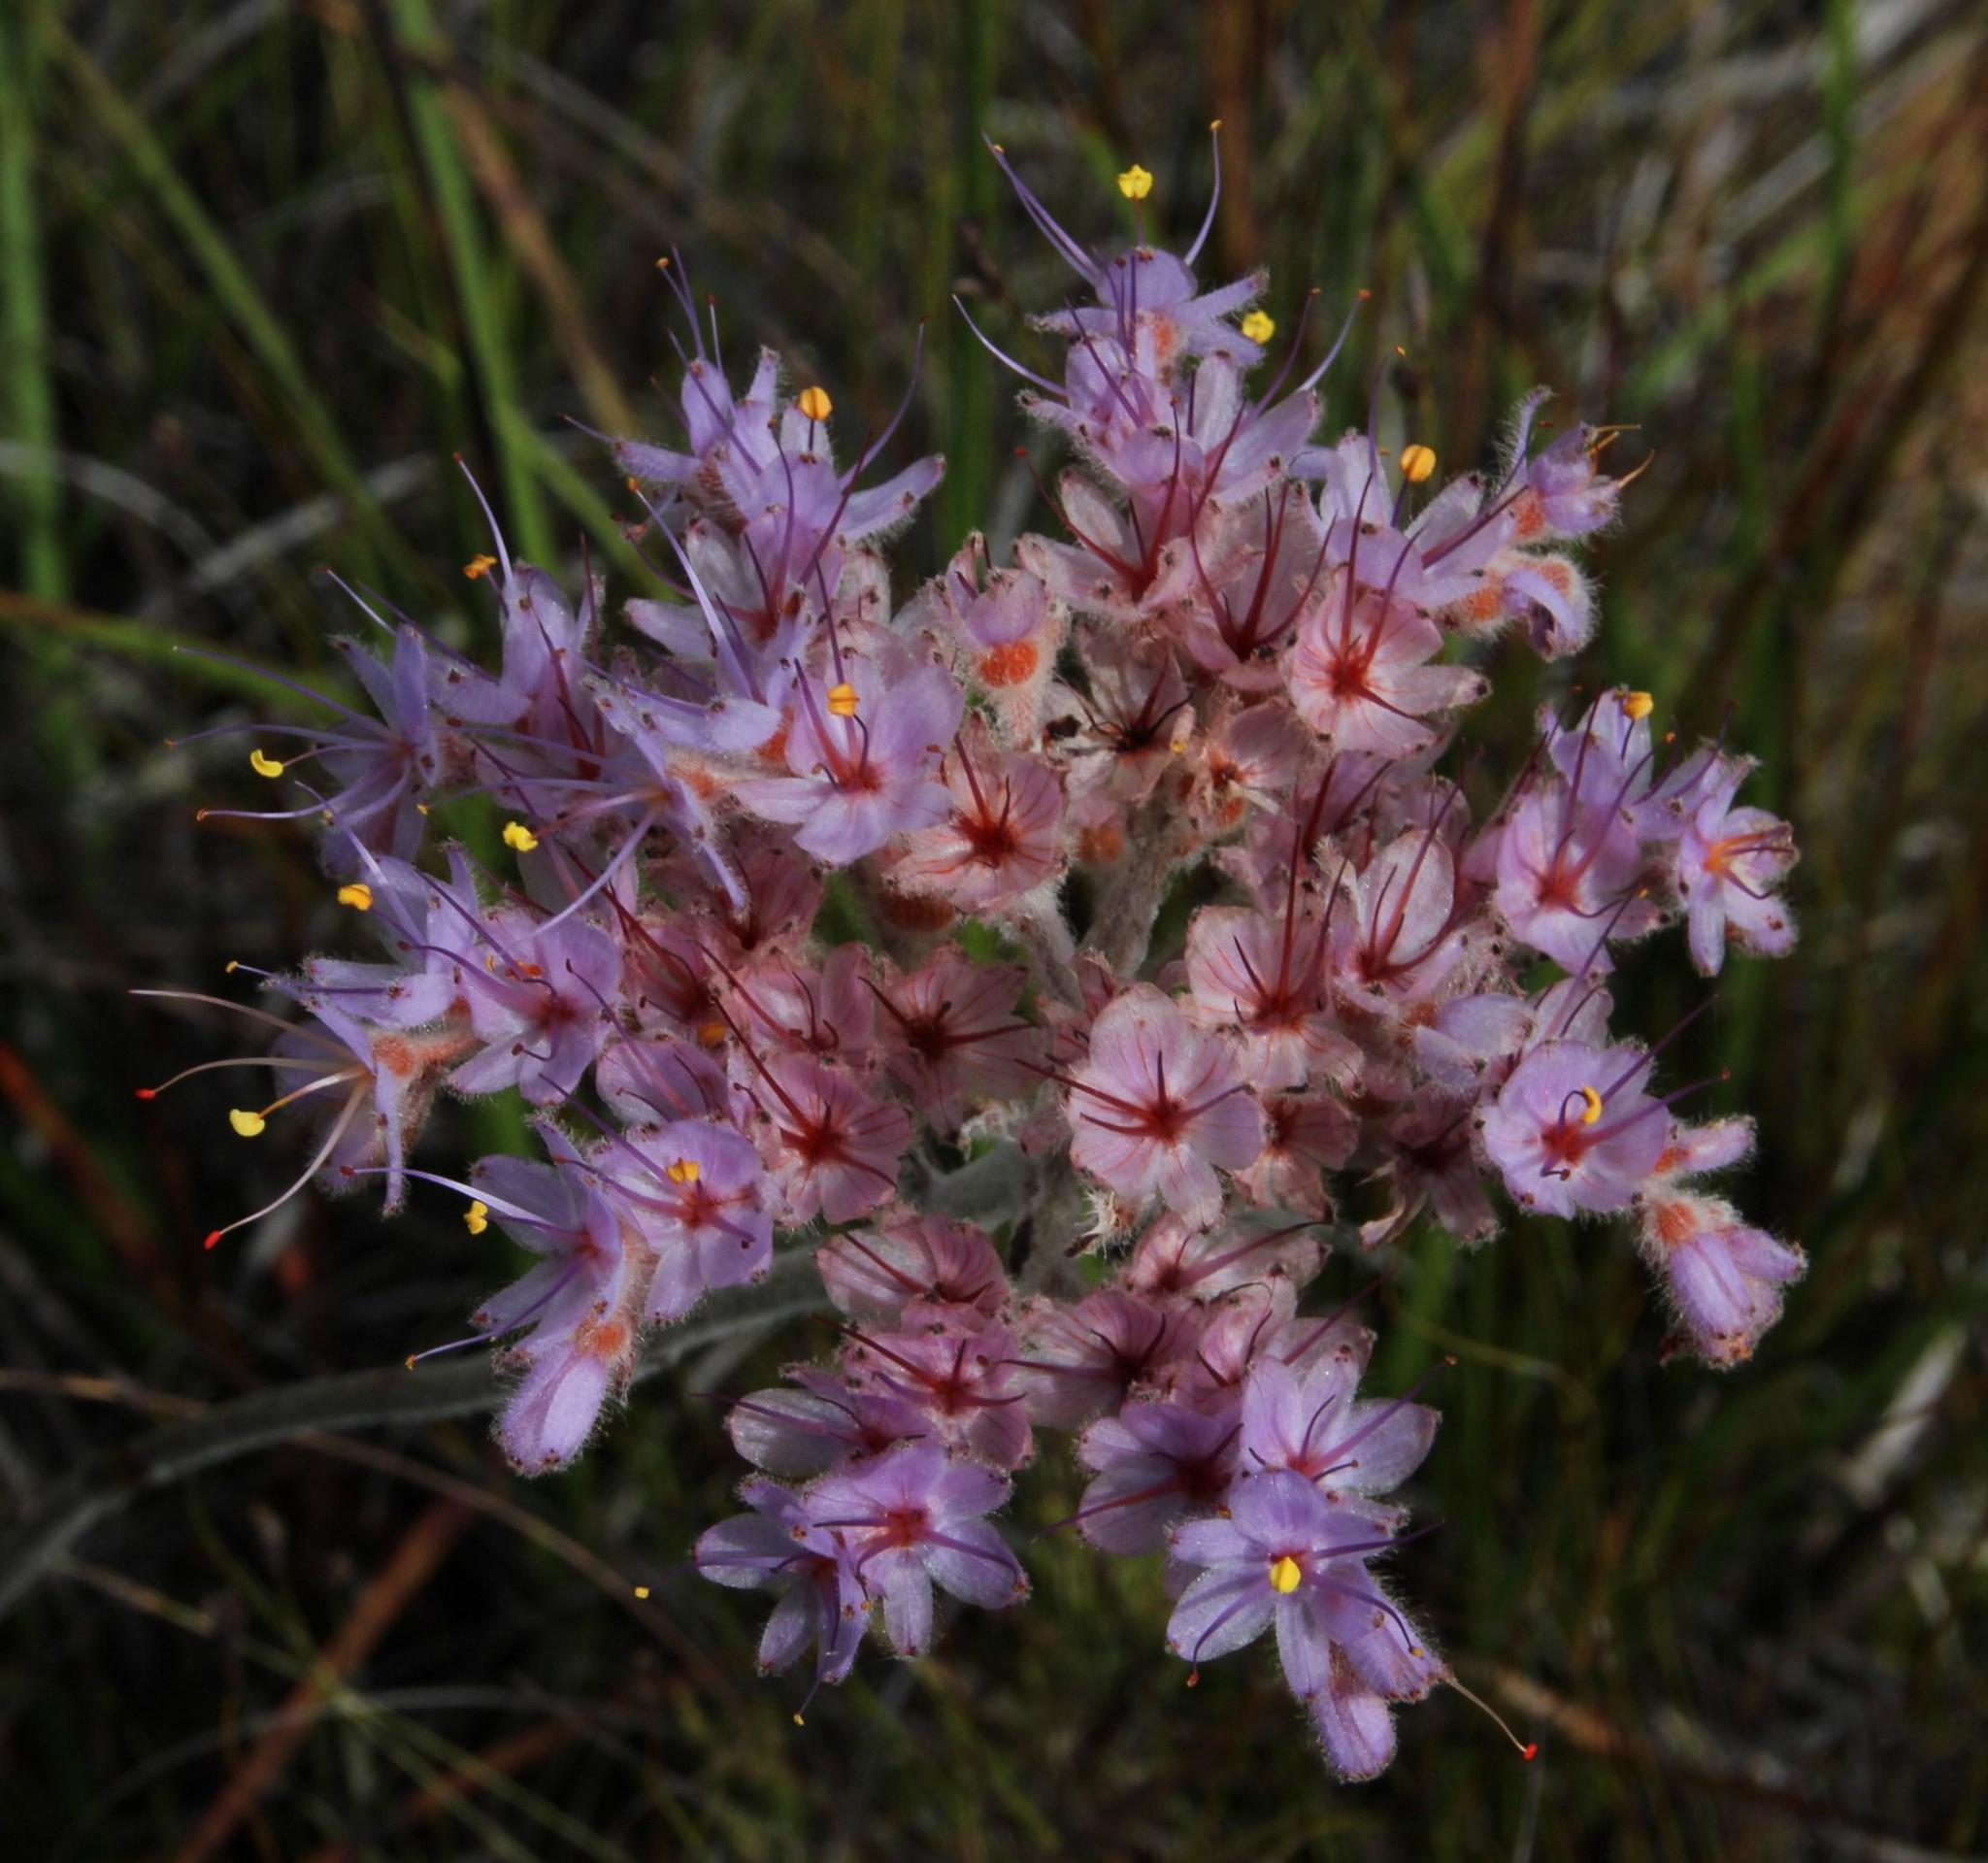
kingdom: Plantae
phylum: Tracheophyta
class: Liliopsida
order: Commelinales
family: Haemodoraceae
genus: Dilatris
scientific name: Dilatris ixioides
